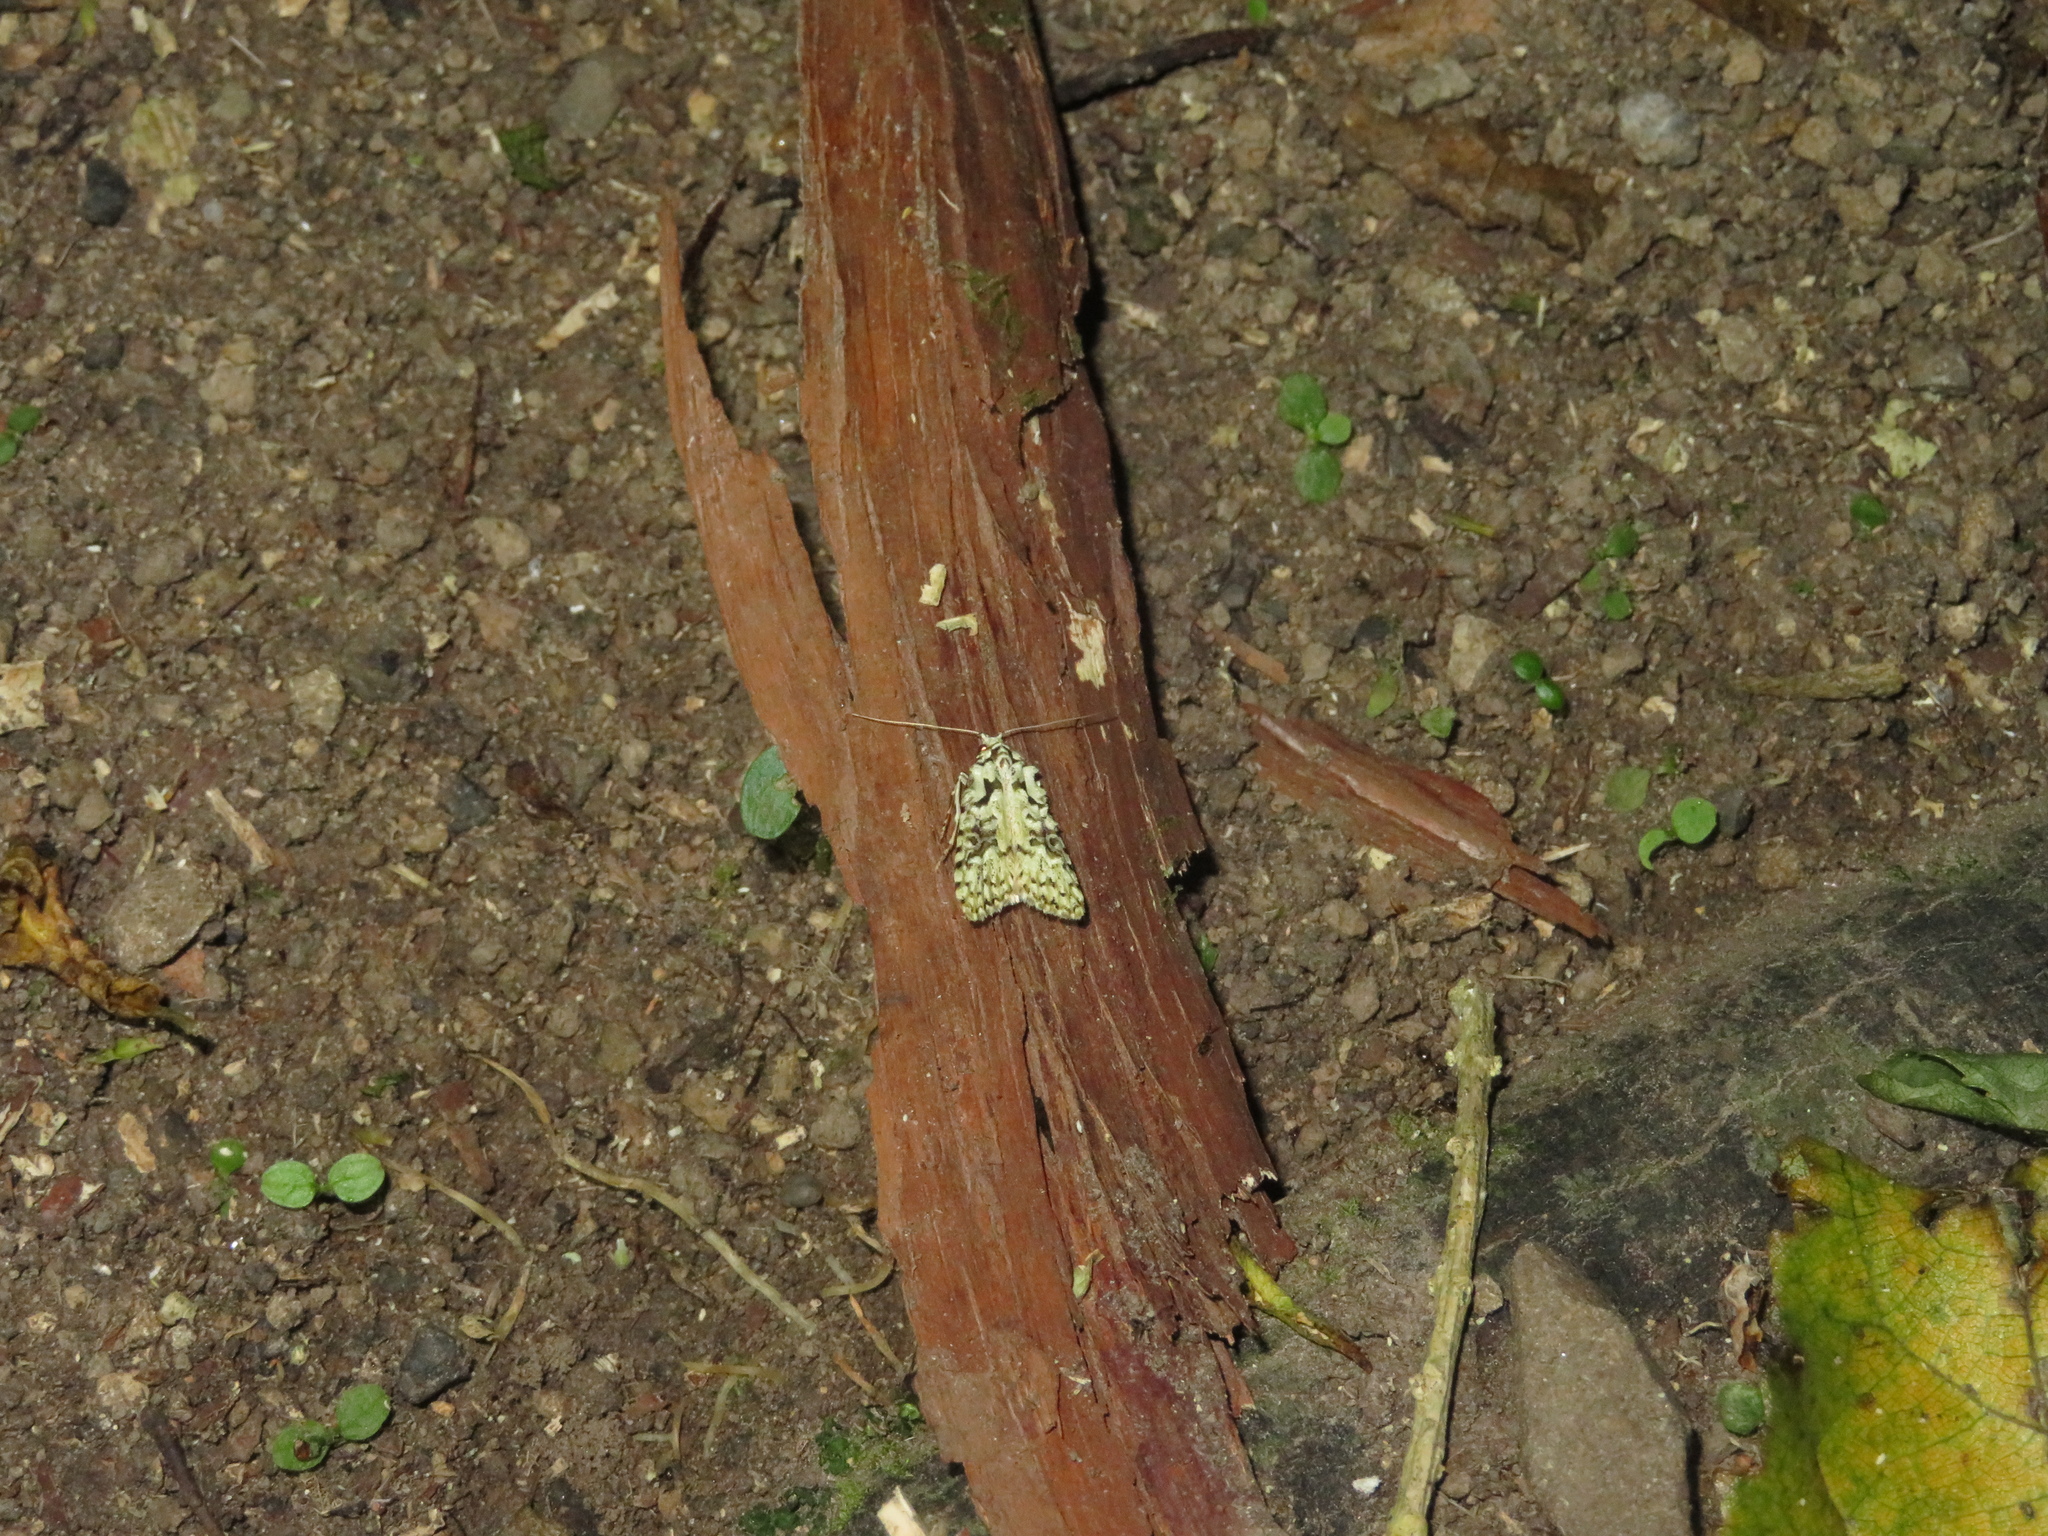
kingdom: Animalia
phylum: Arthropoda
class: Insecta
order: Lepidoptera
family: Carposinidae
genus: Carposina
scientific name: Carposina Heterocrossa eriphylla
